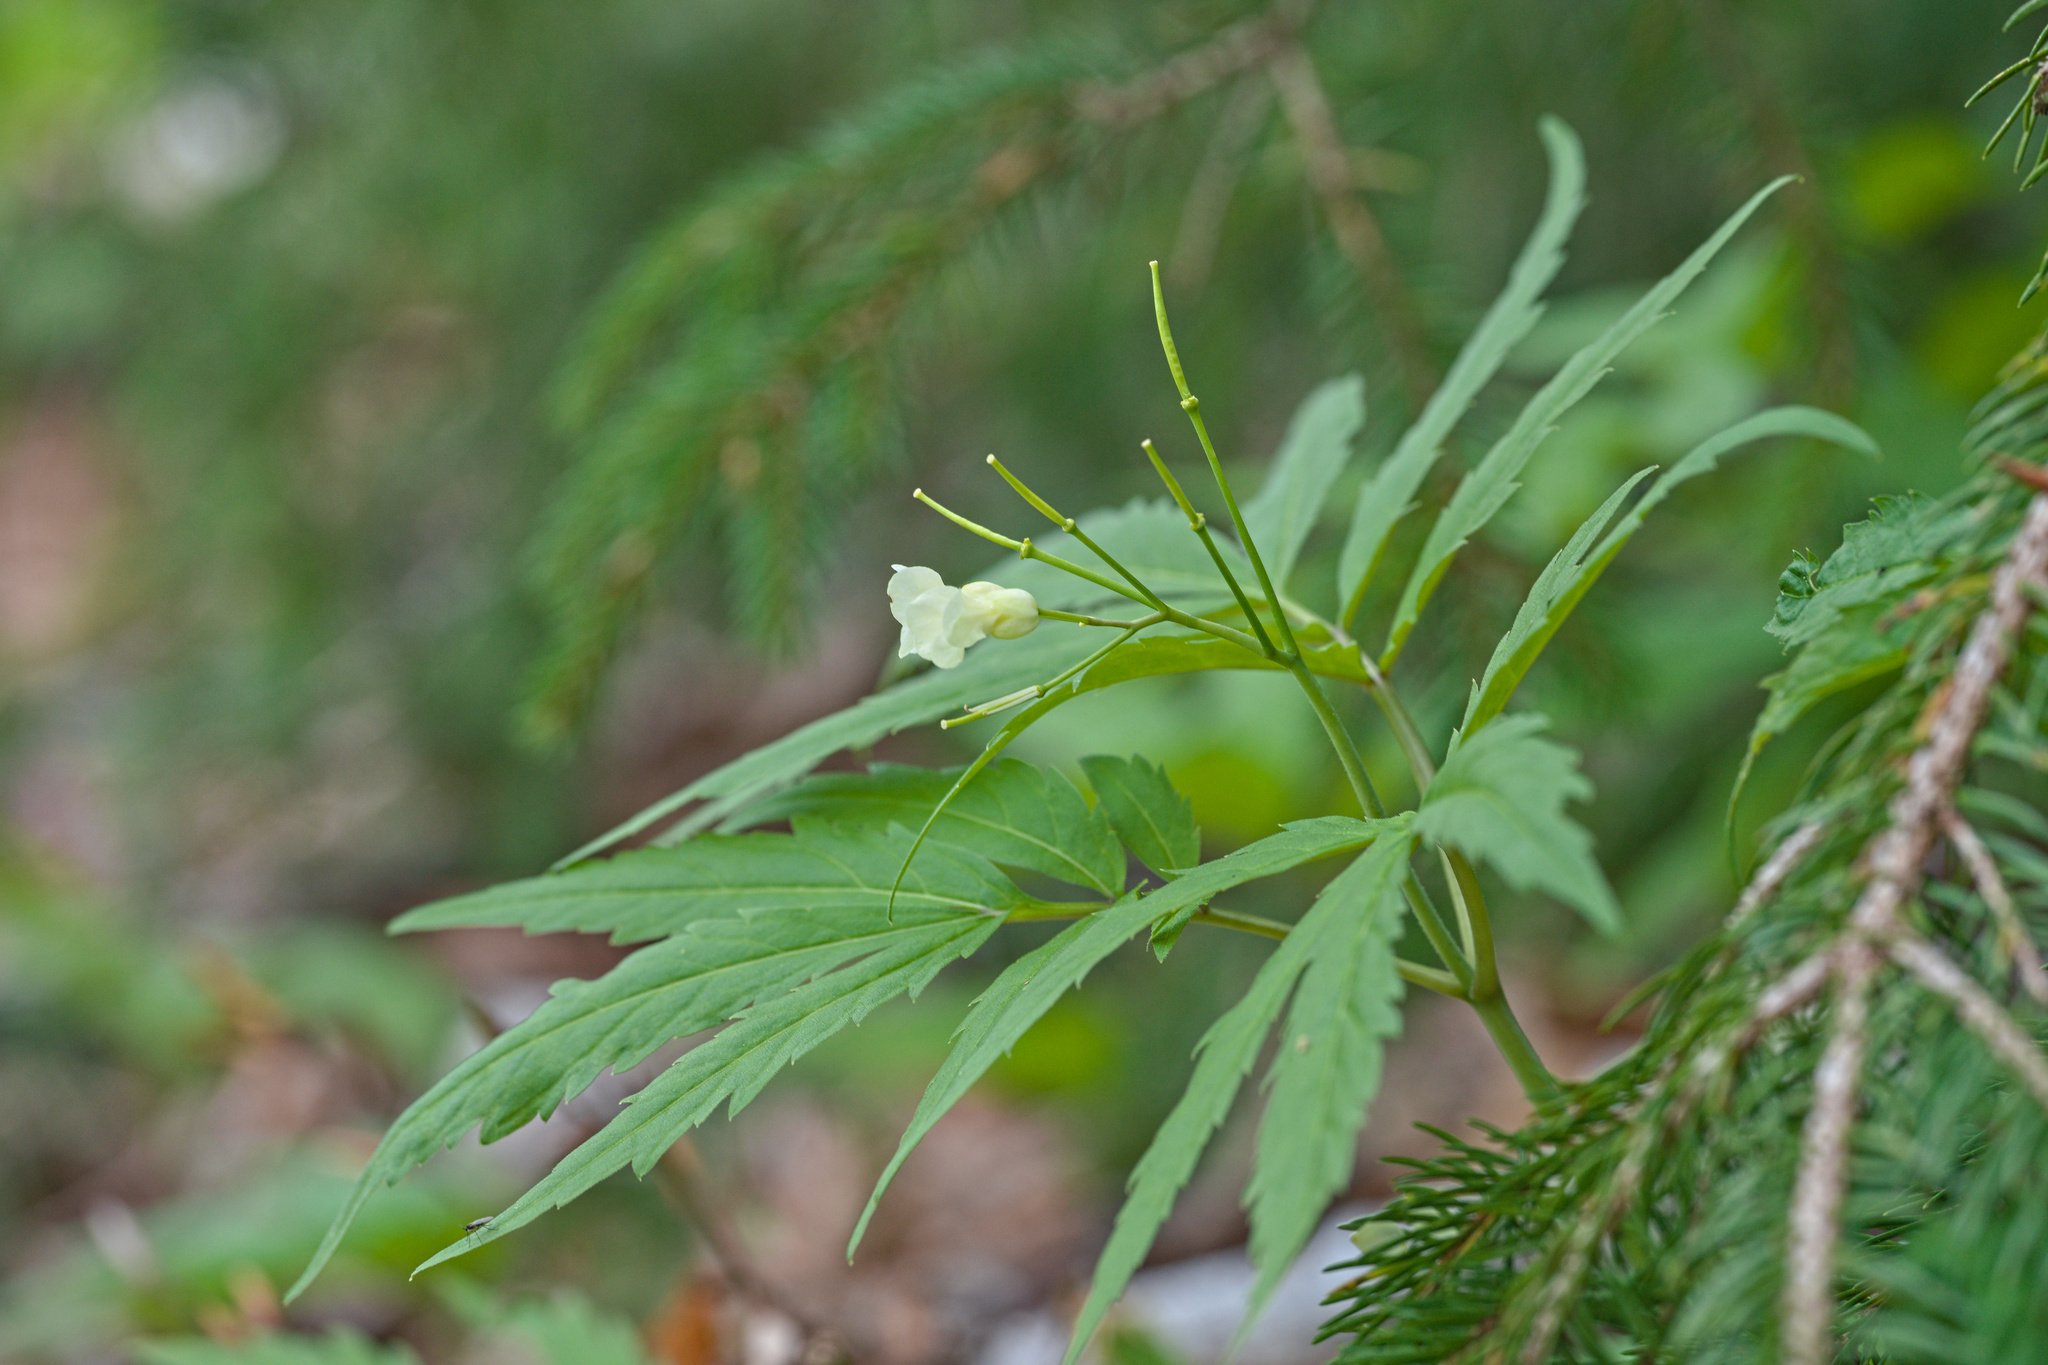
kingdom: Plantae
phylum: Tracheophyta
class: Magnoliopsida
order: Brassicales
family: Brassicaceae
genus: Cardamine
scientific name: Cardamine kitaibelii
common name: Kitaibel's bitter-cress
